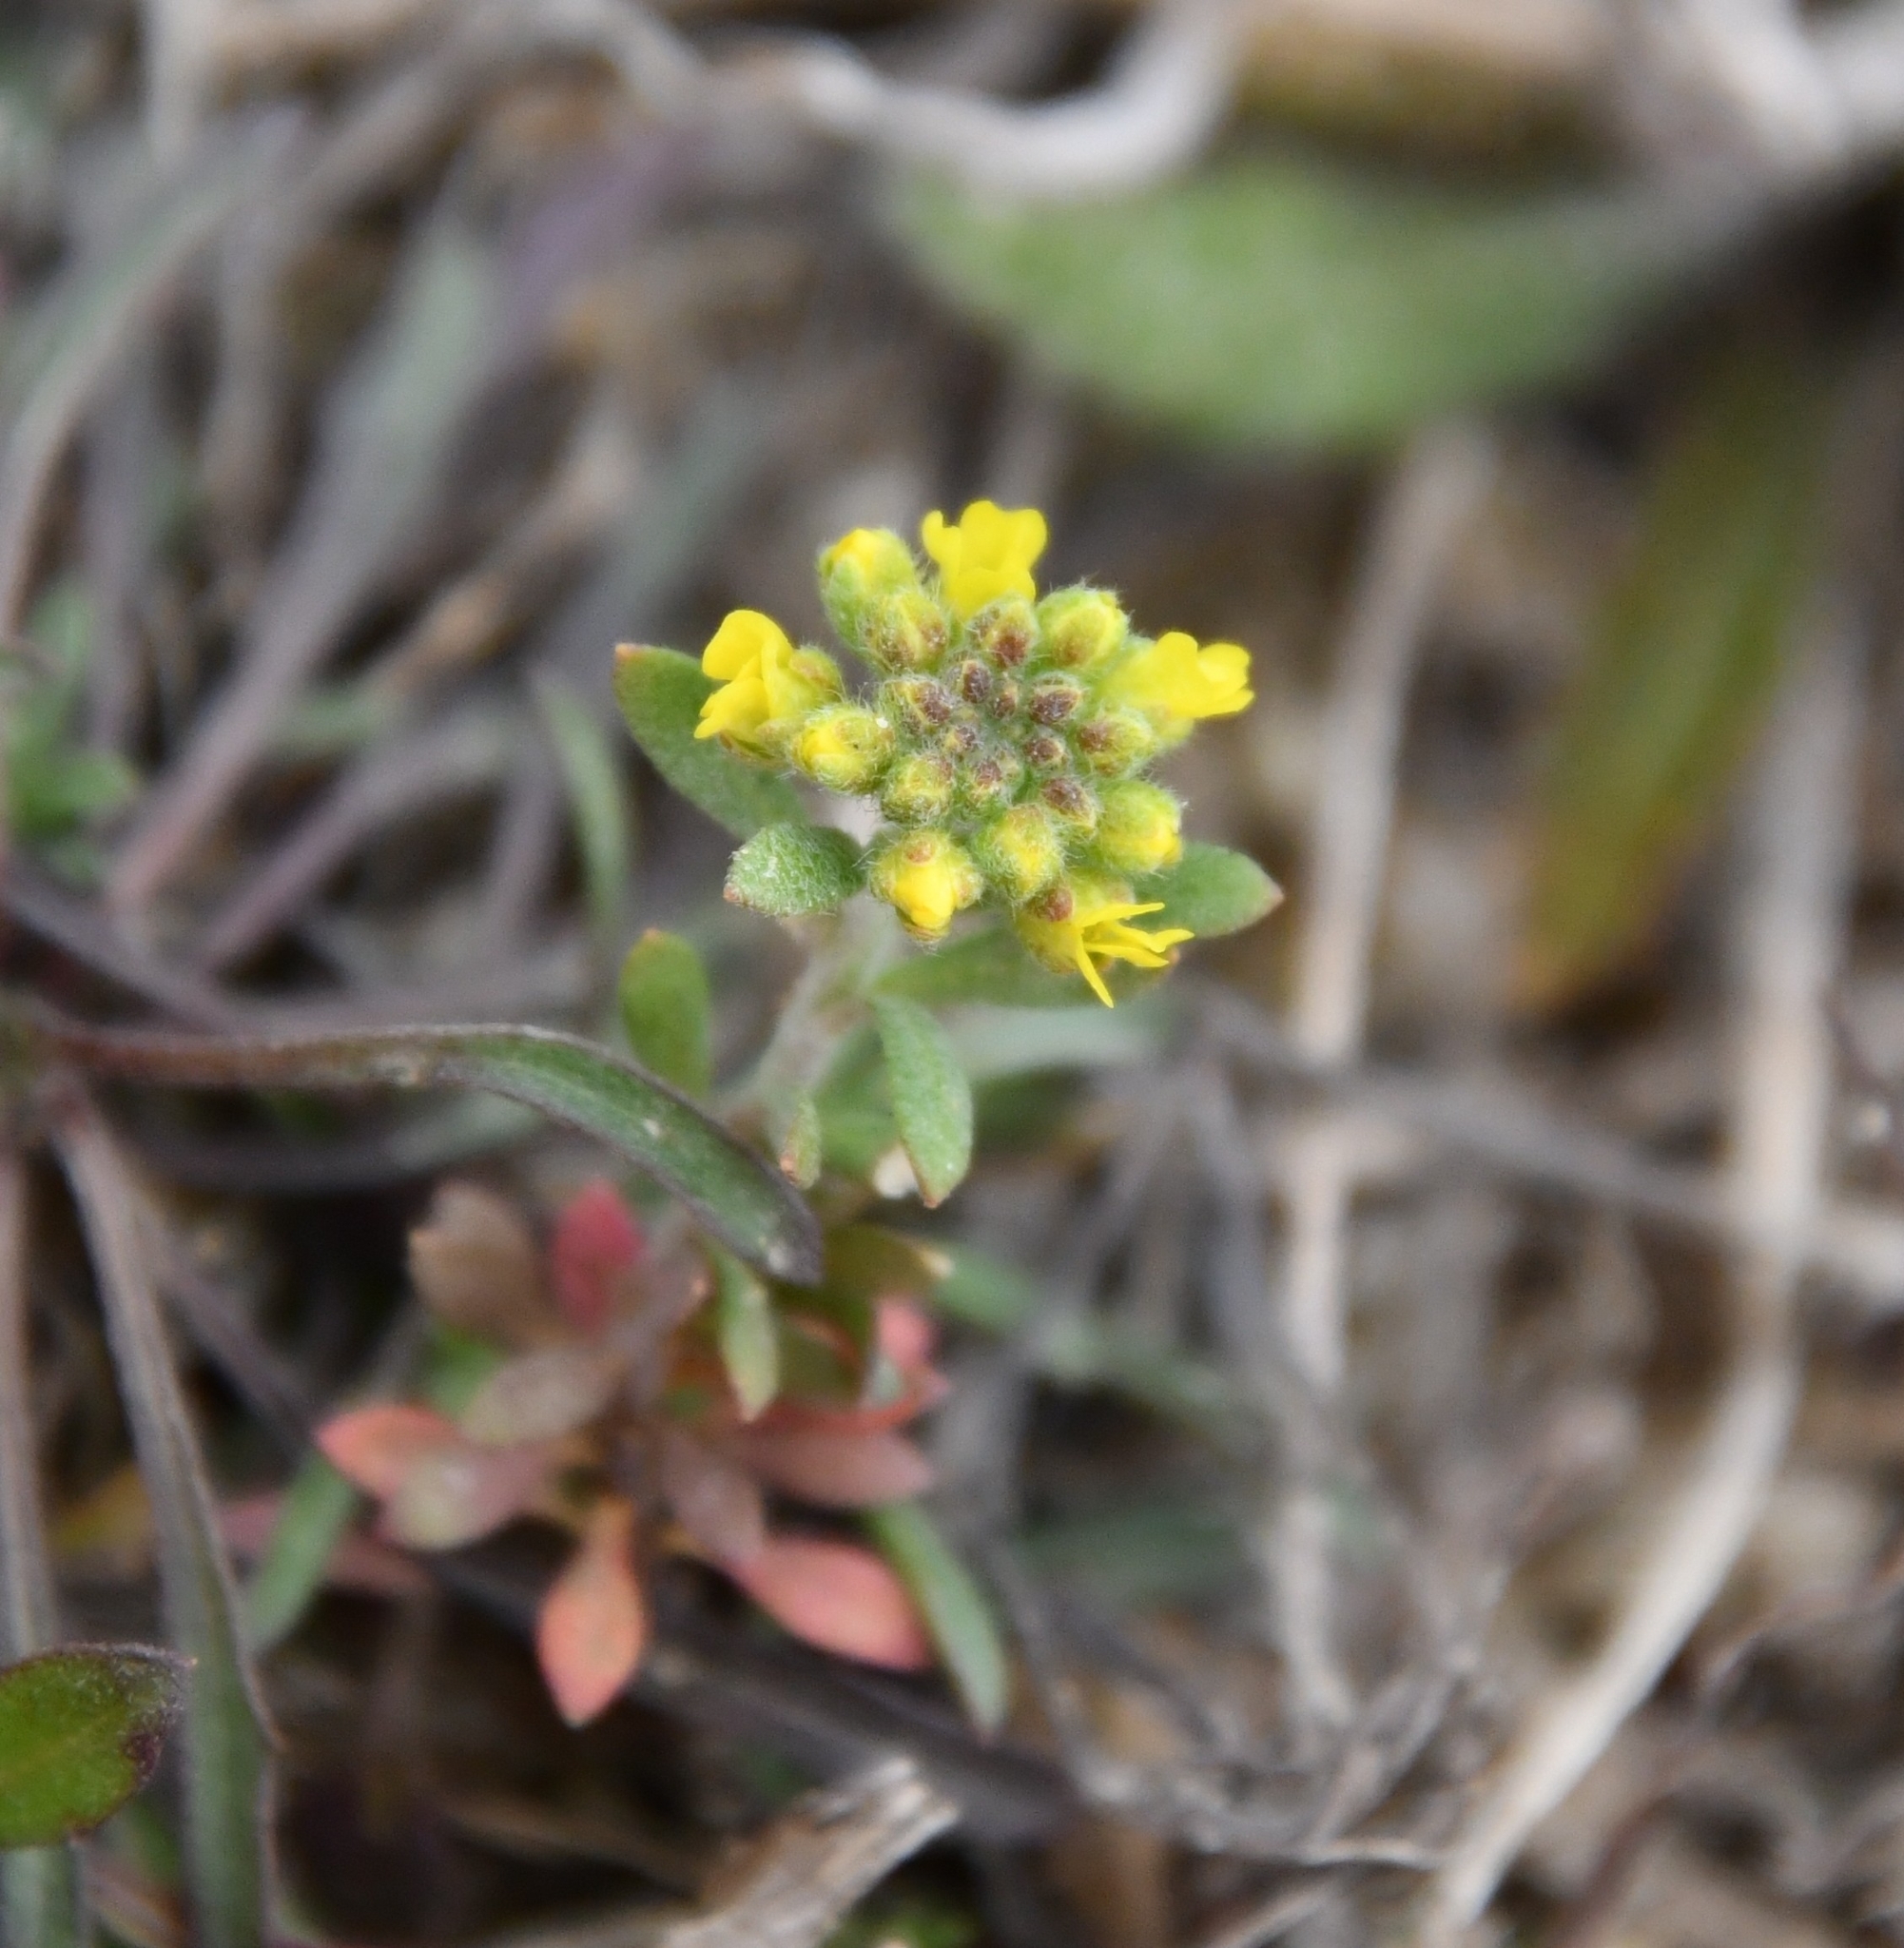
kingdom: Plantae
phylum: Tracheophyta
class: Magnoliopsida
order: Brassicales
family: Brassicaceae
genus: Alyssum
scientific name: Alyssum turkestanicum
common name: Desert alyssum
